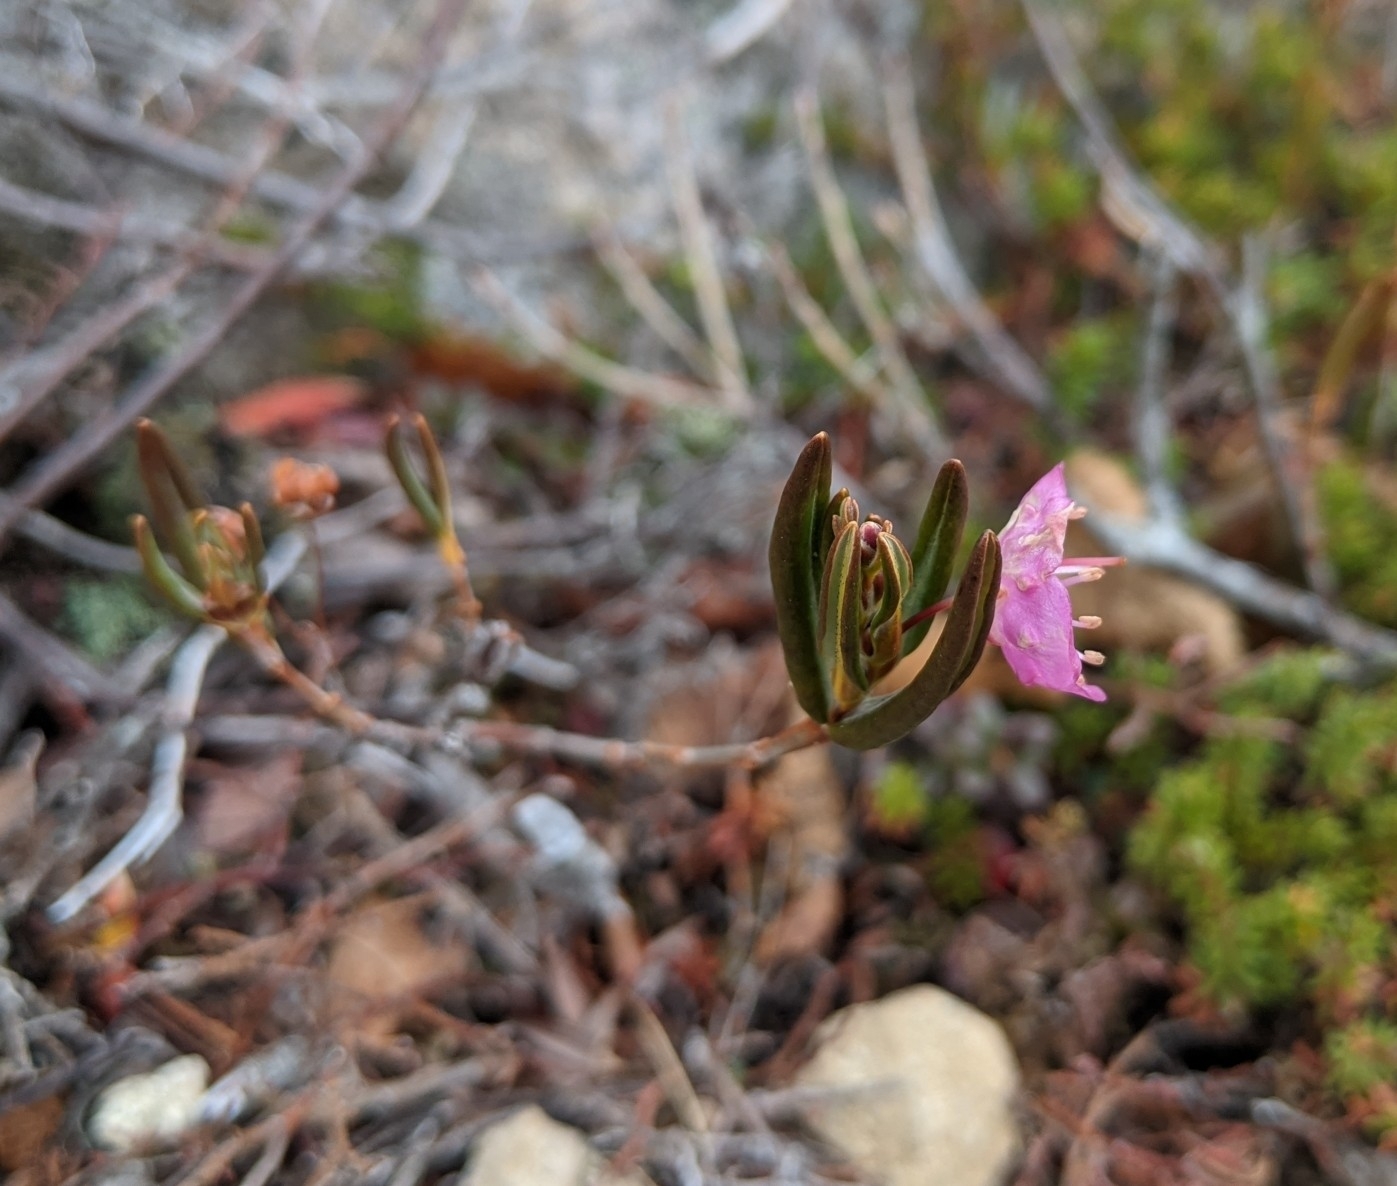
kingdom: Plantae
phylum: Tracheophyta
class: Magnoliopsida
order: Ericales
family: Ericaceae
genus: Kalmia
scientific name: Kalmia polifolia
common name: Bog-laurel
